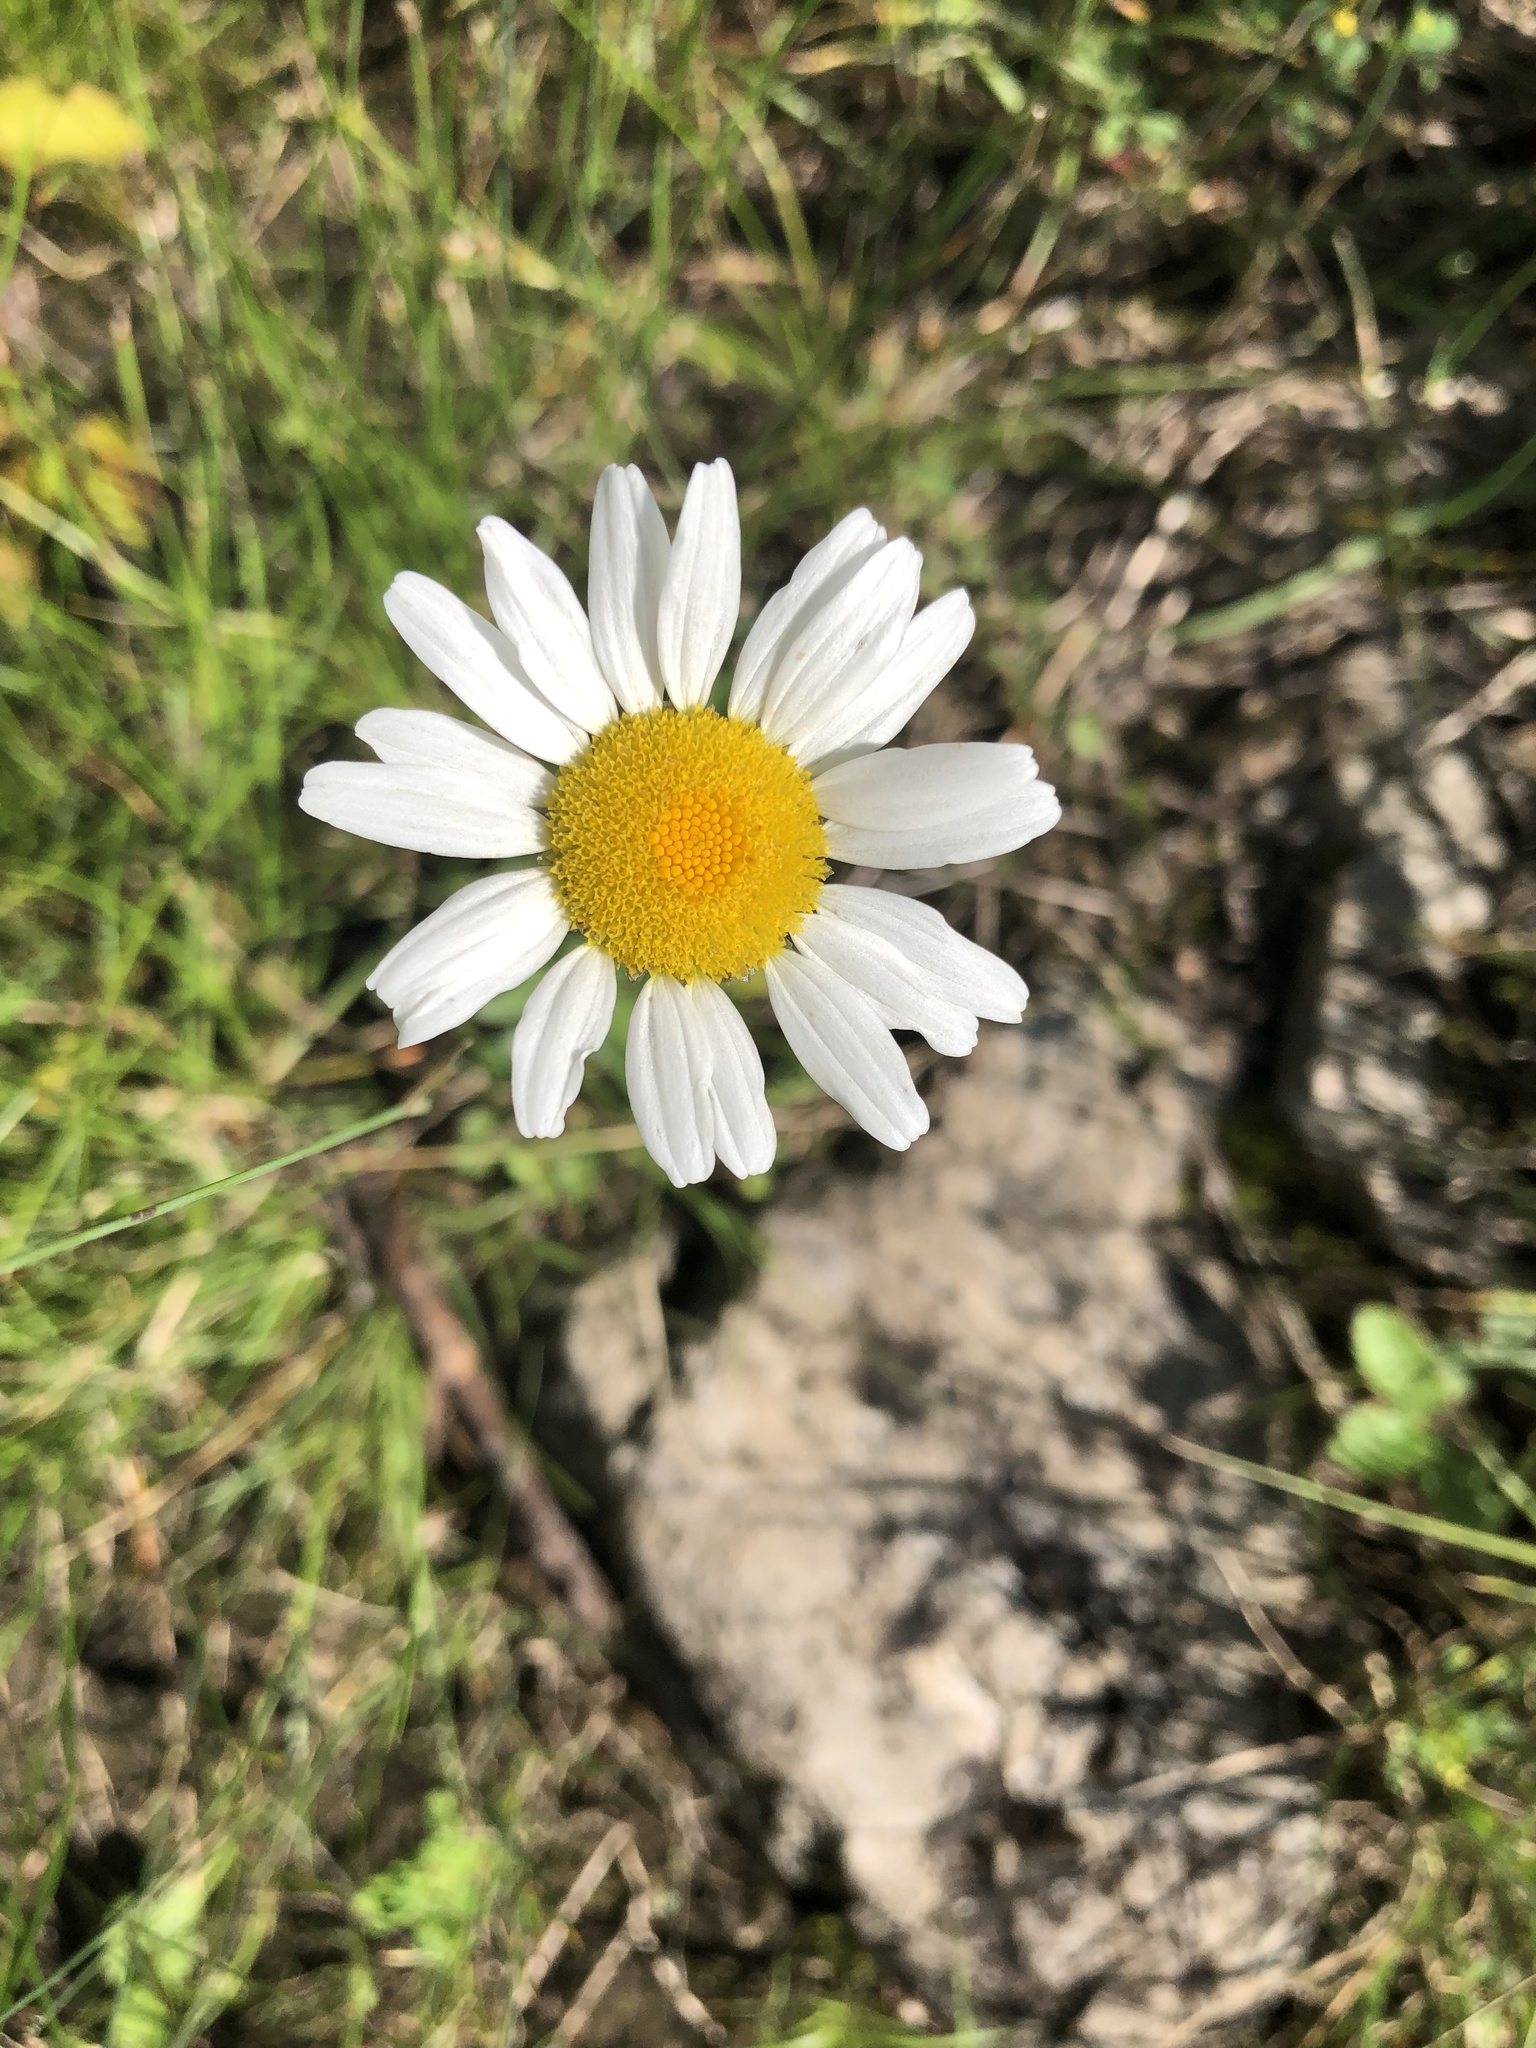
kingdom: Plantae
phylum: Tracheophyta
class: Magnoliopsida
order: Asterales
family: Asteraceae
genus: Leucanthemum
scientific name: Leucanthemum vulgare
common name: Oxeye daisy
